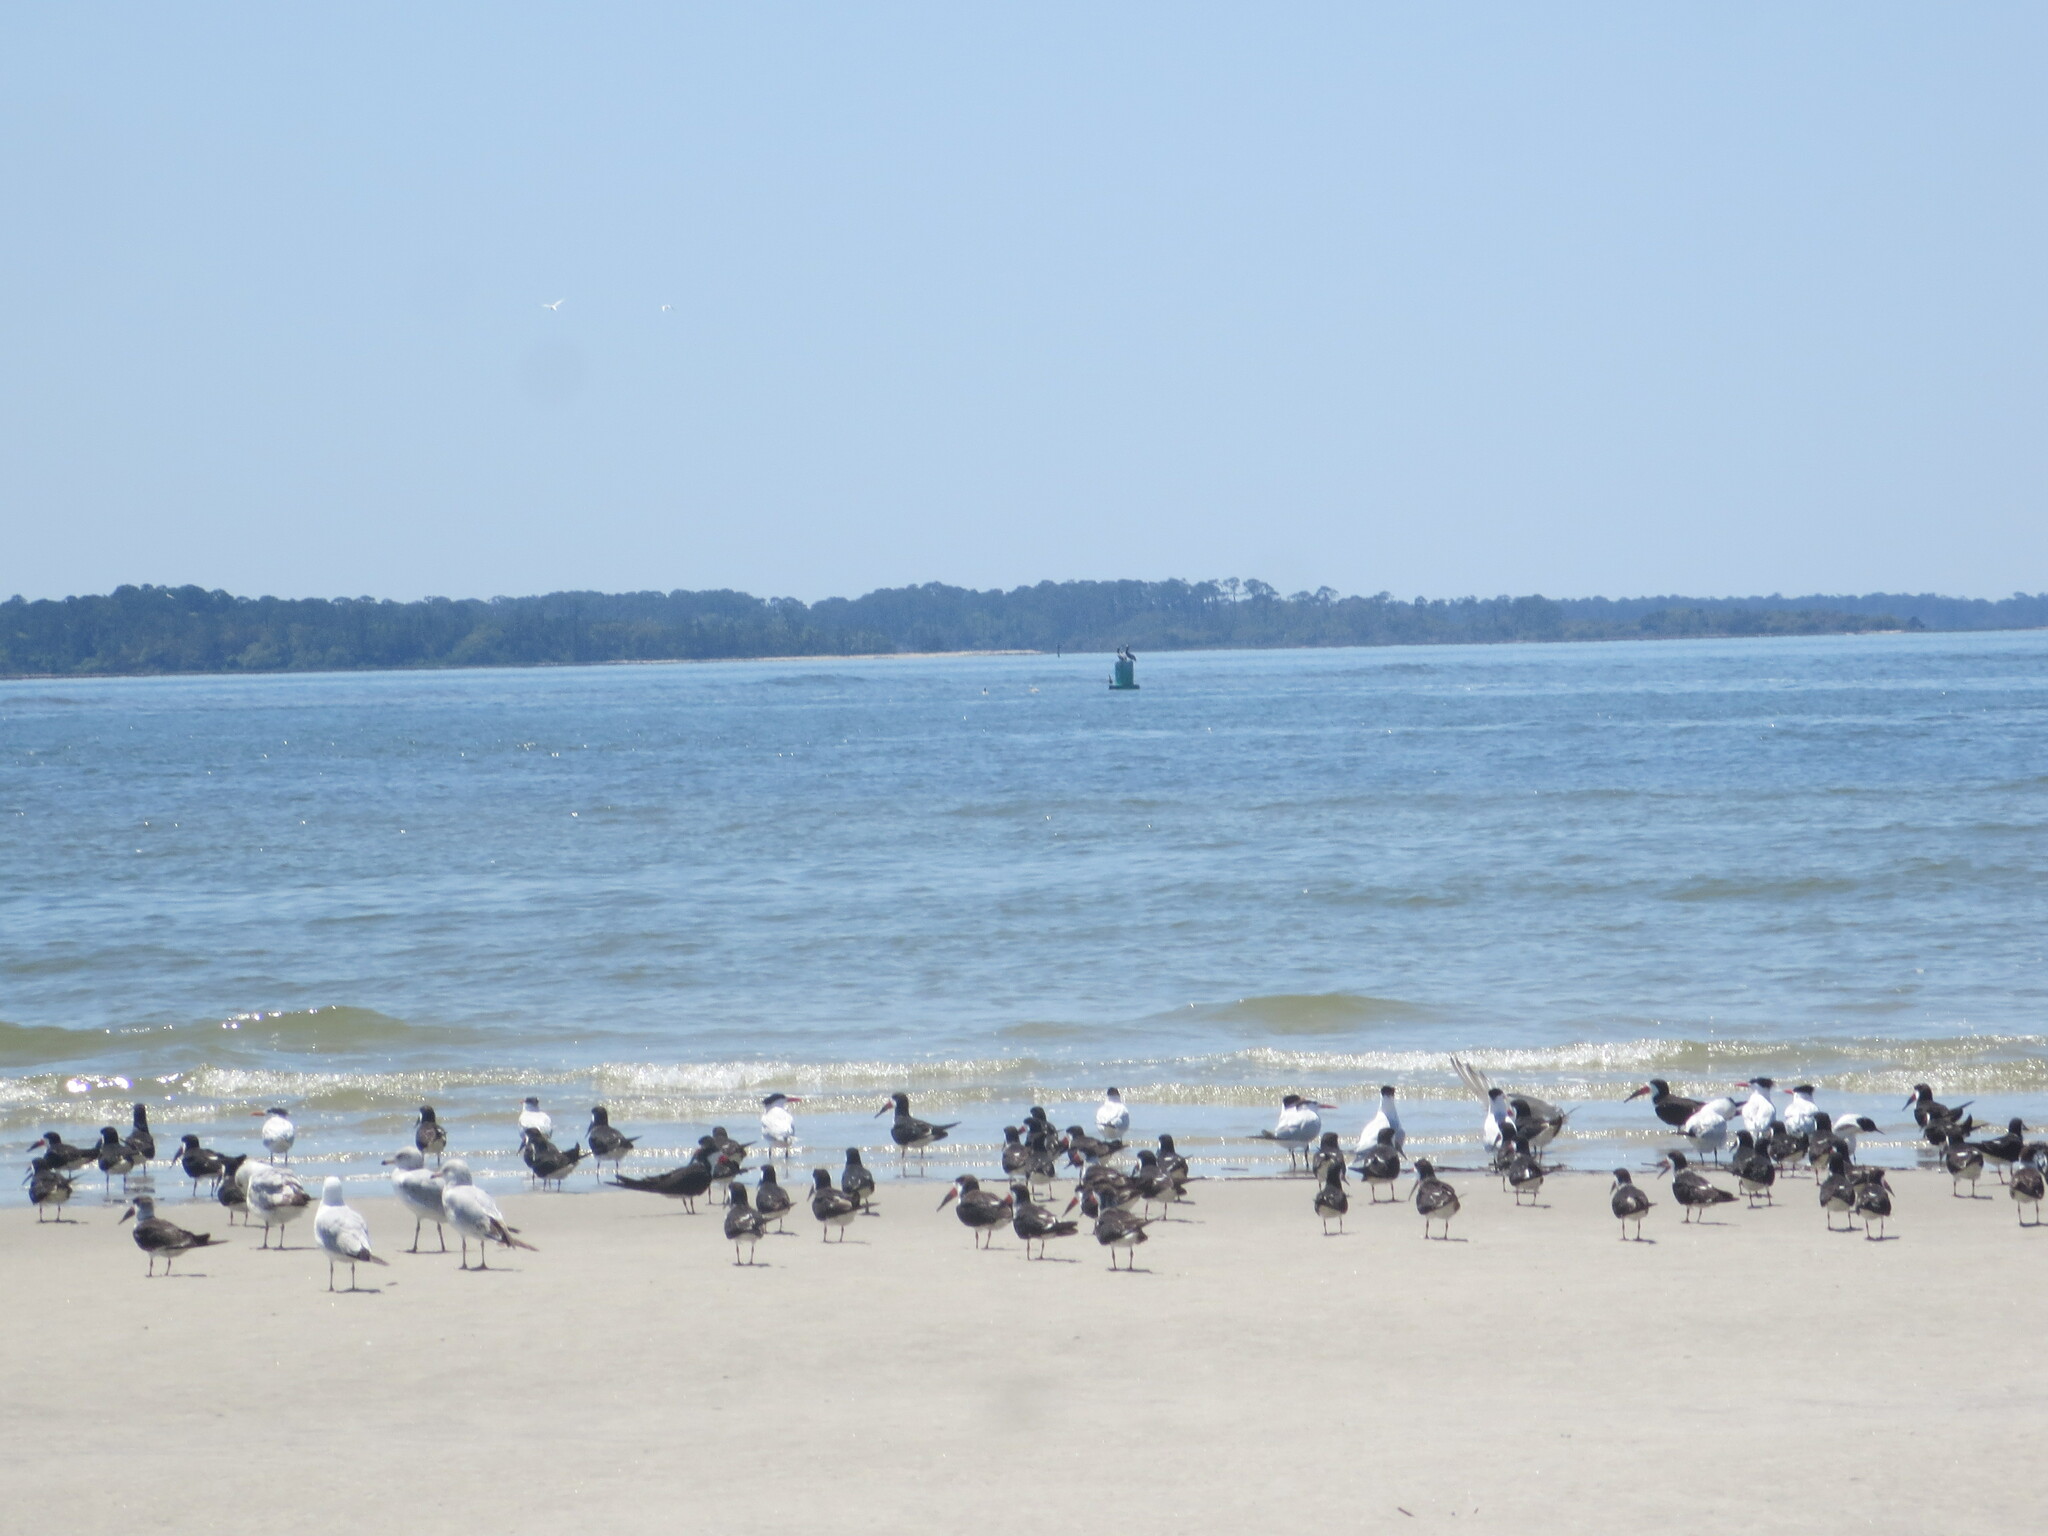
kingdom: Animalia
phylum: Chordata
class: Aves
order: Charadriiformes
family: Laridae
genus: Larus
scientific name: Larus argentatus
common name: Herring gull
